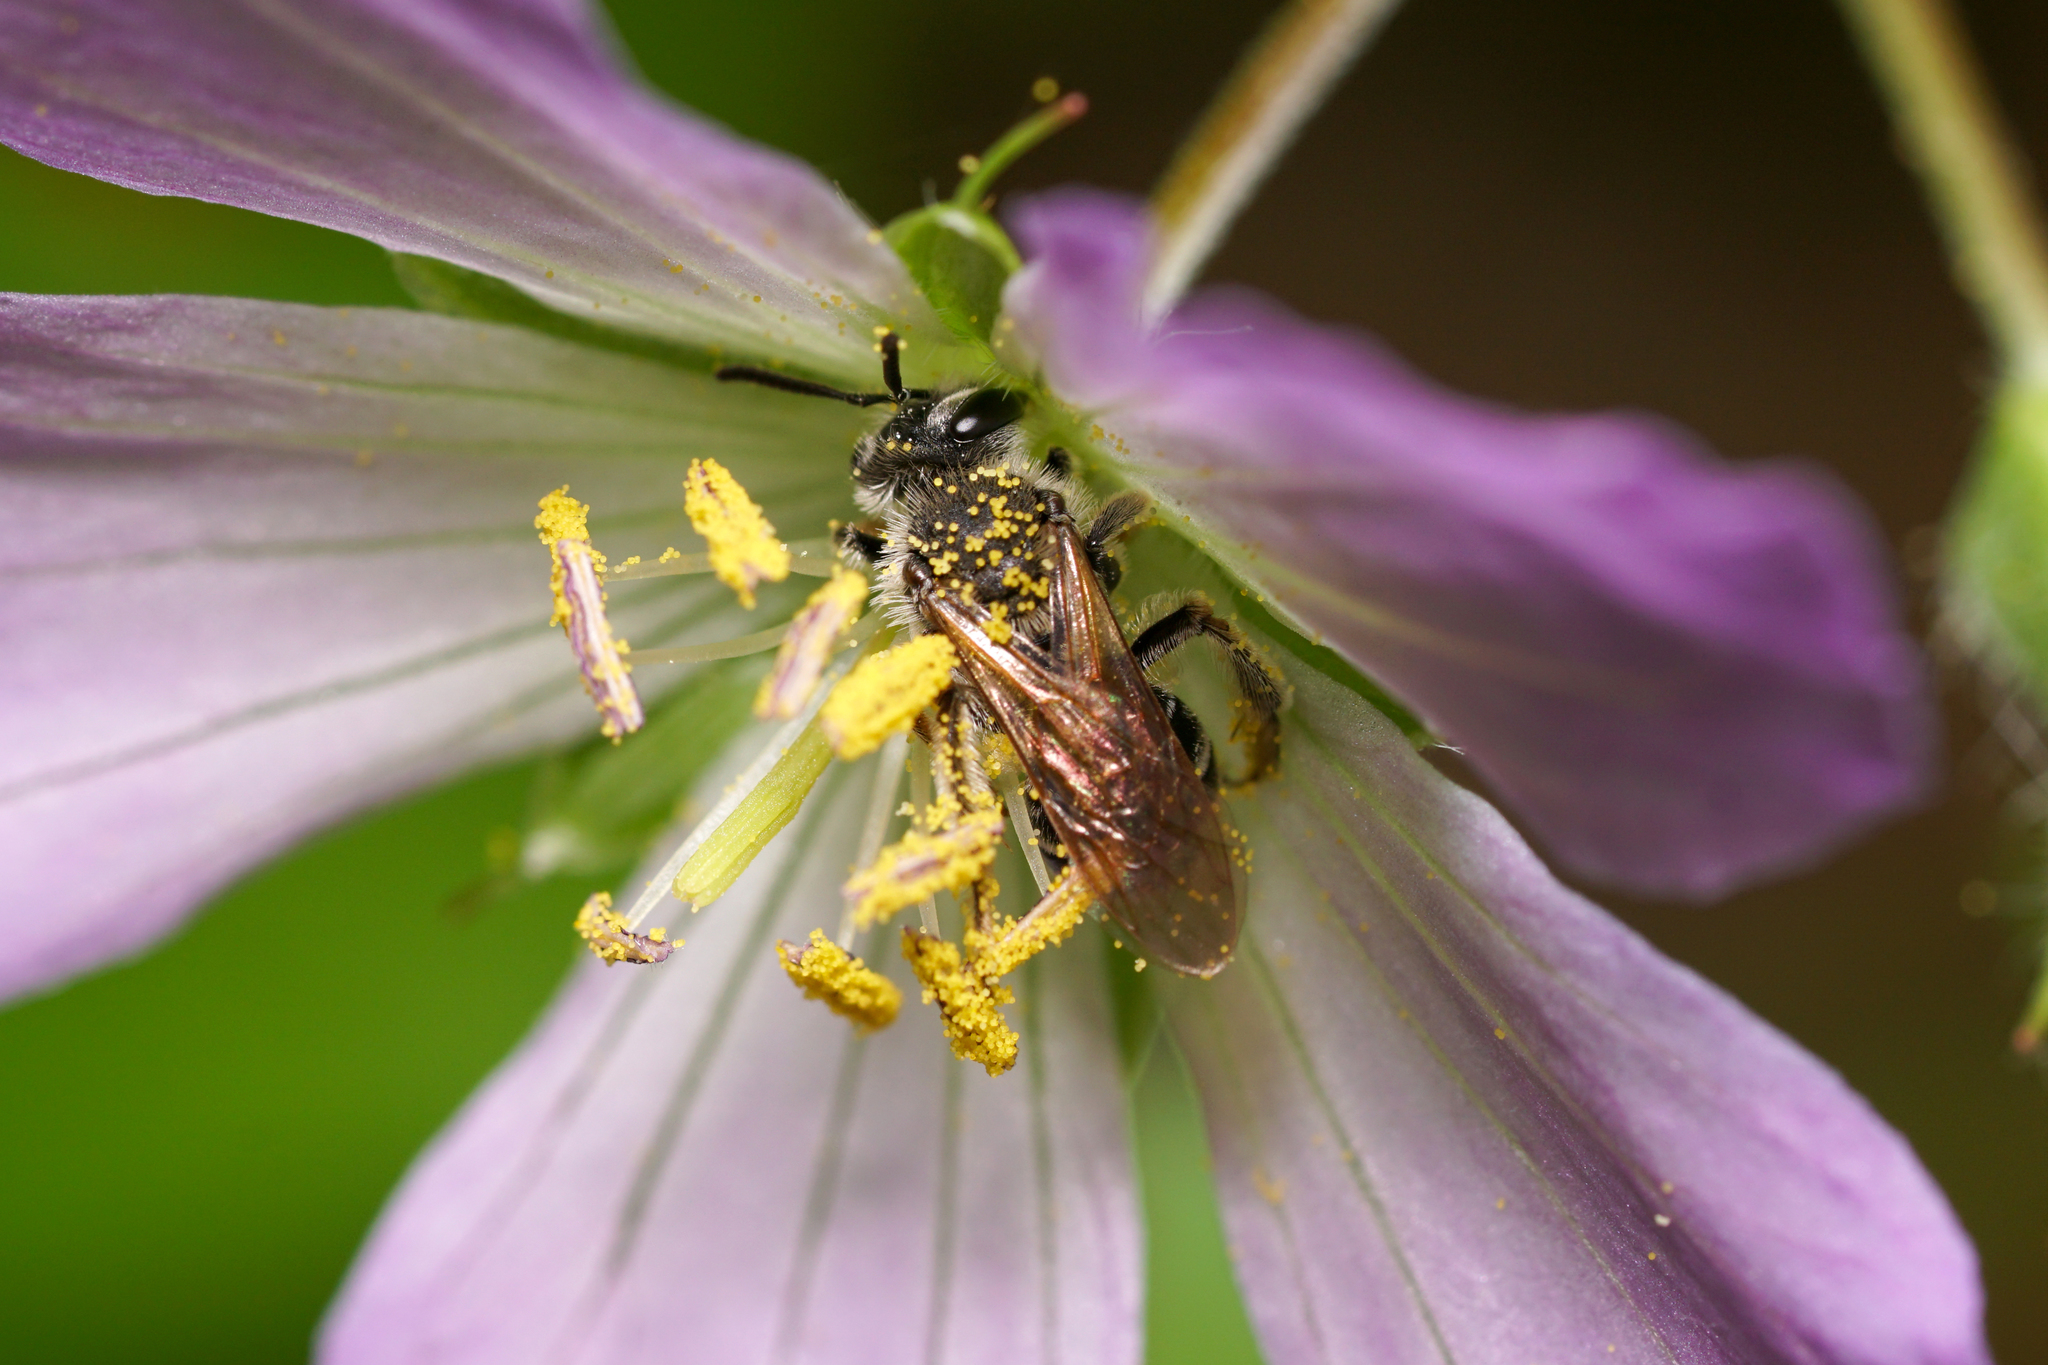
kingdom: Animalia
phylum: Arthropoda
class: Insecta
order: Hymenoptera
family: Andrenidae
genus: Andrena
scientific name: Andrena
